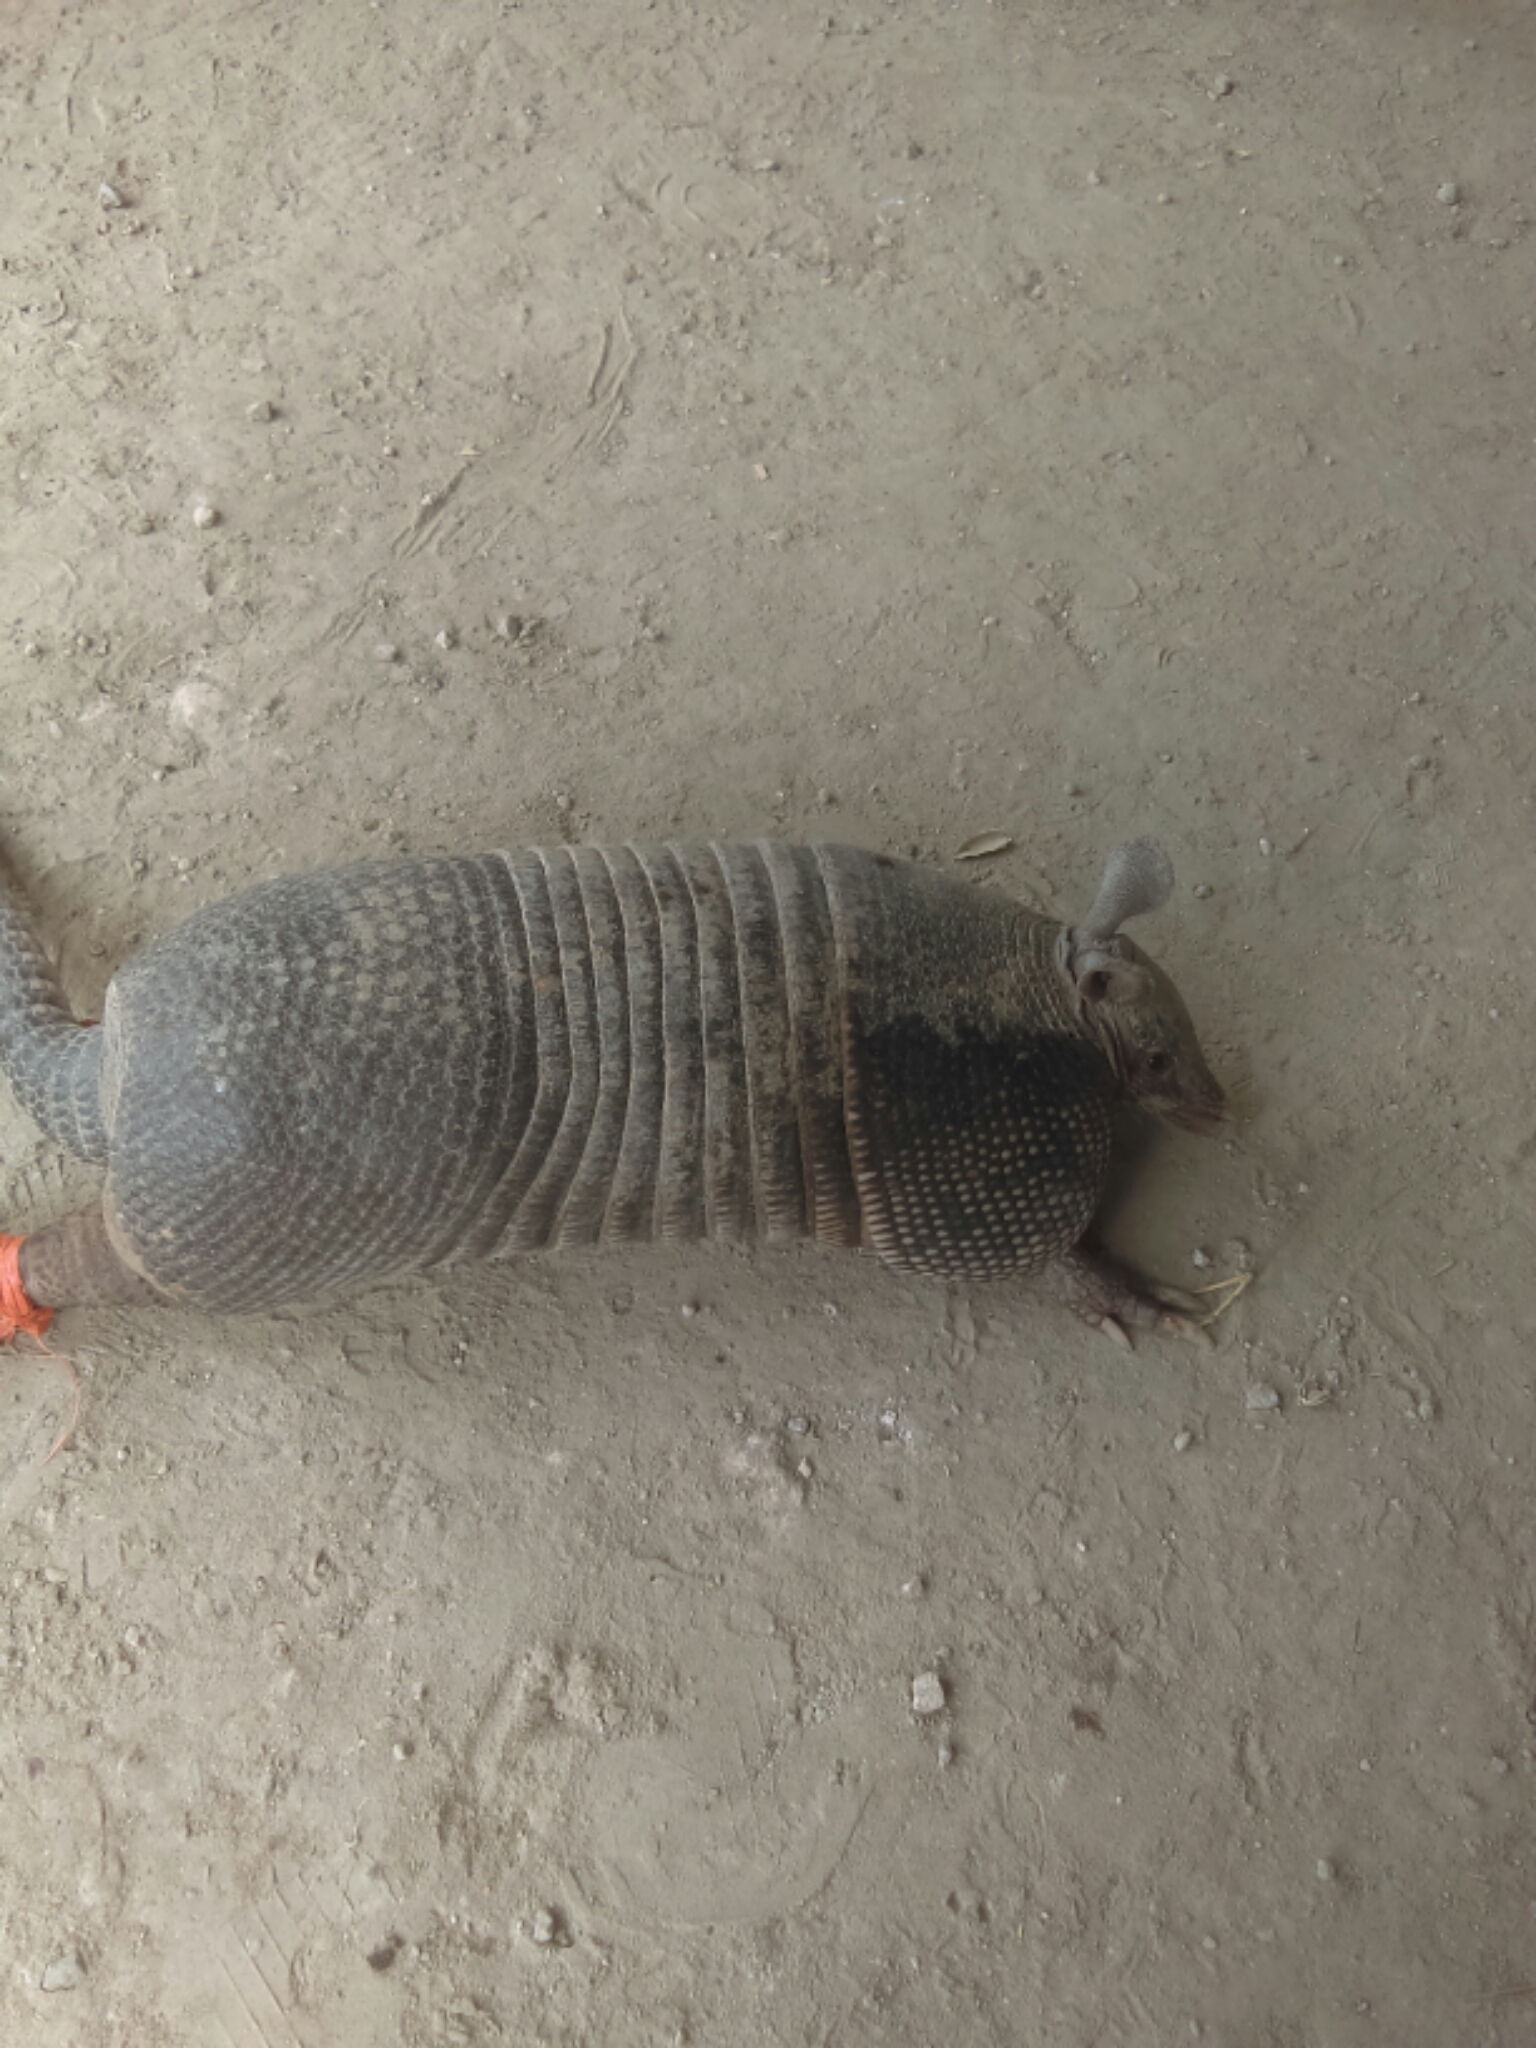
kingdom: Animalia
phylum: Chordata
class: Mammalia
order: Cingulata
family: Dasypodidae
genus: Dasypus
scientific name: Dasypus novemcinctus
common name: Nine-banded armadillo
